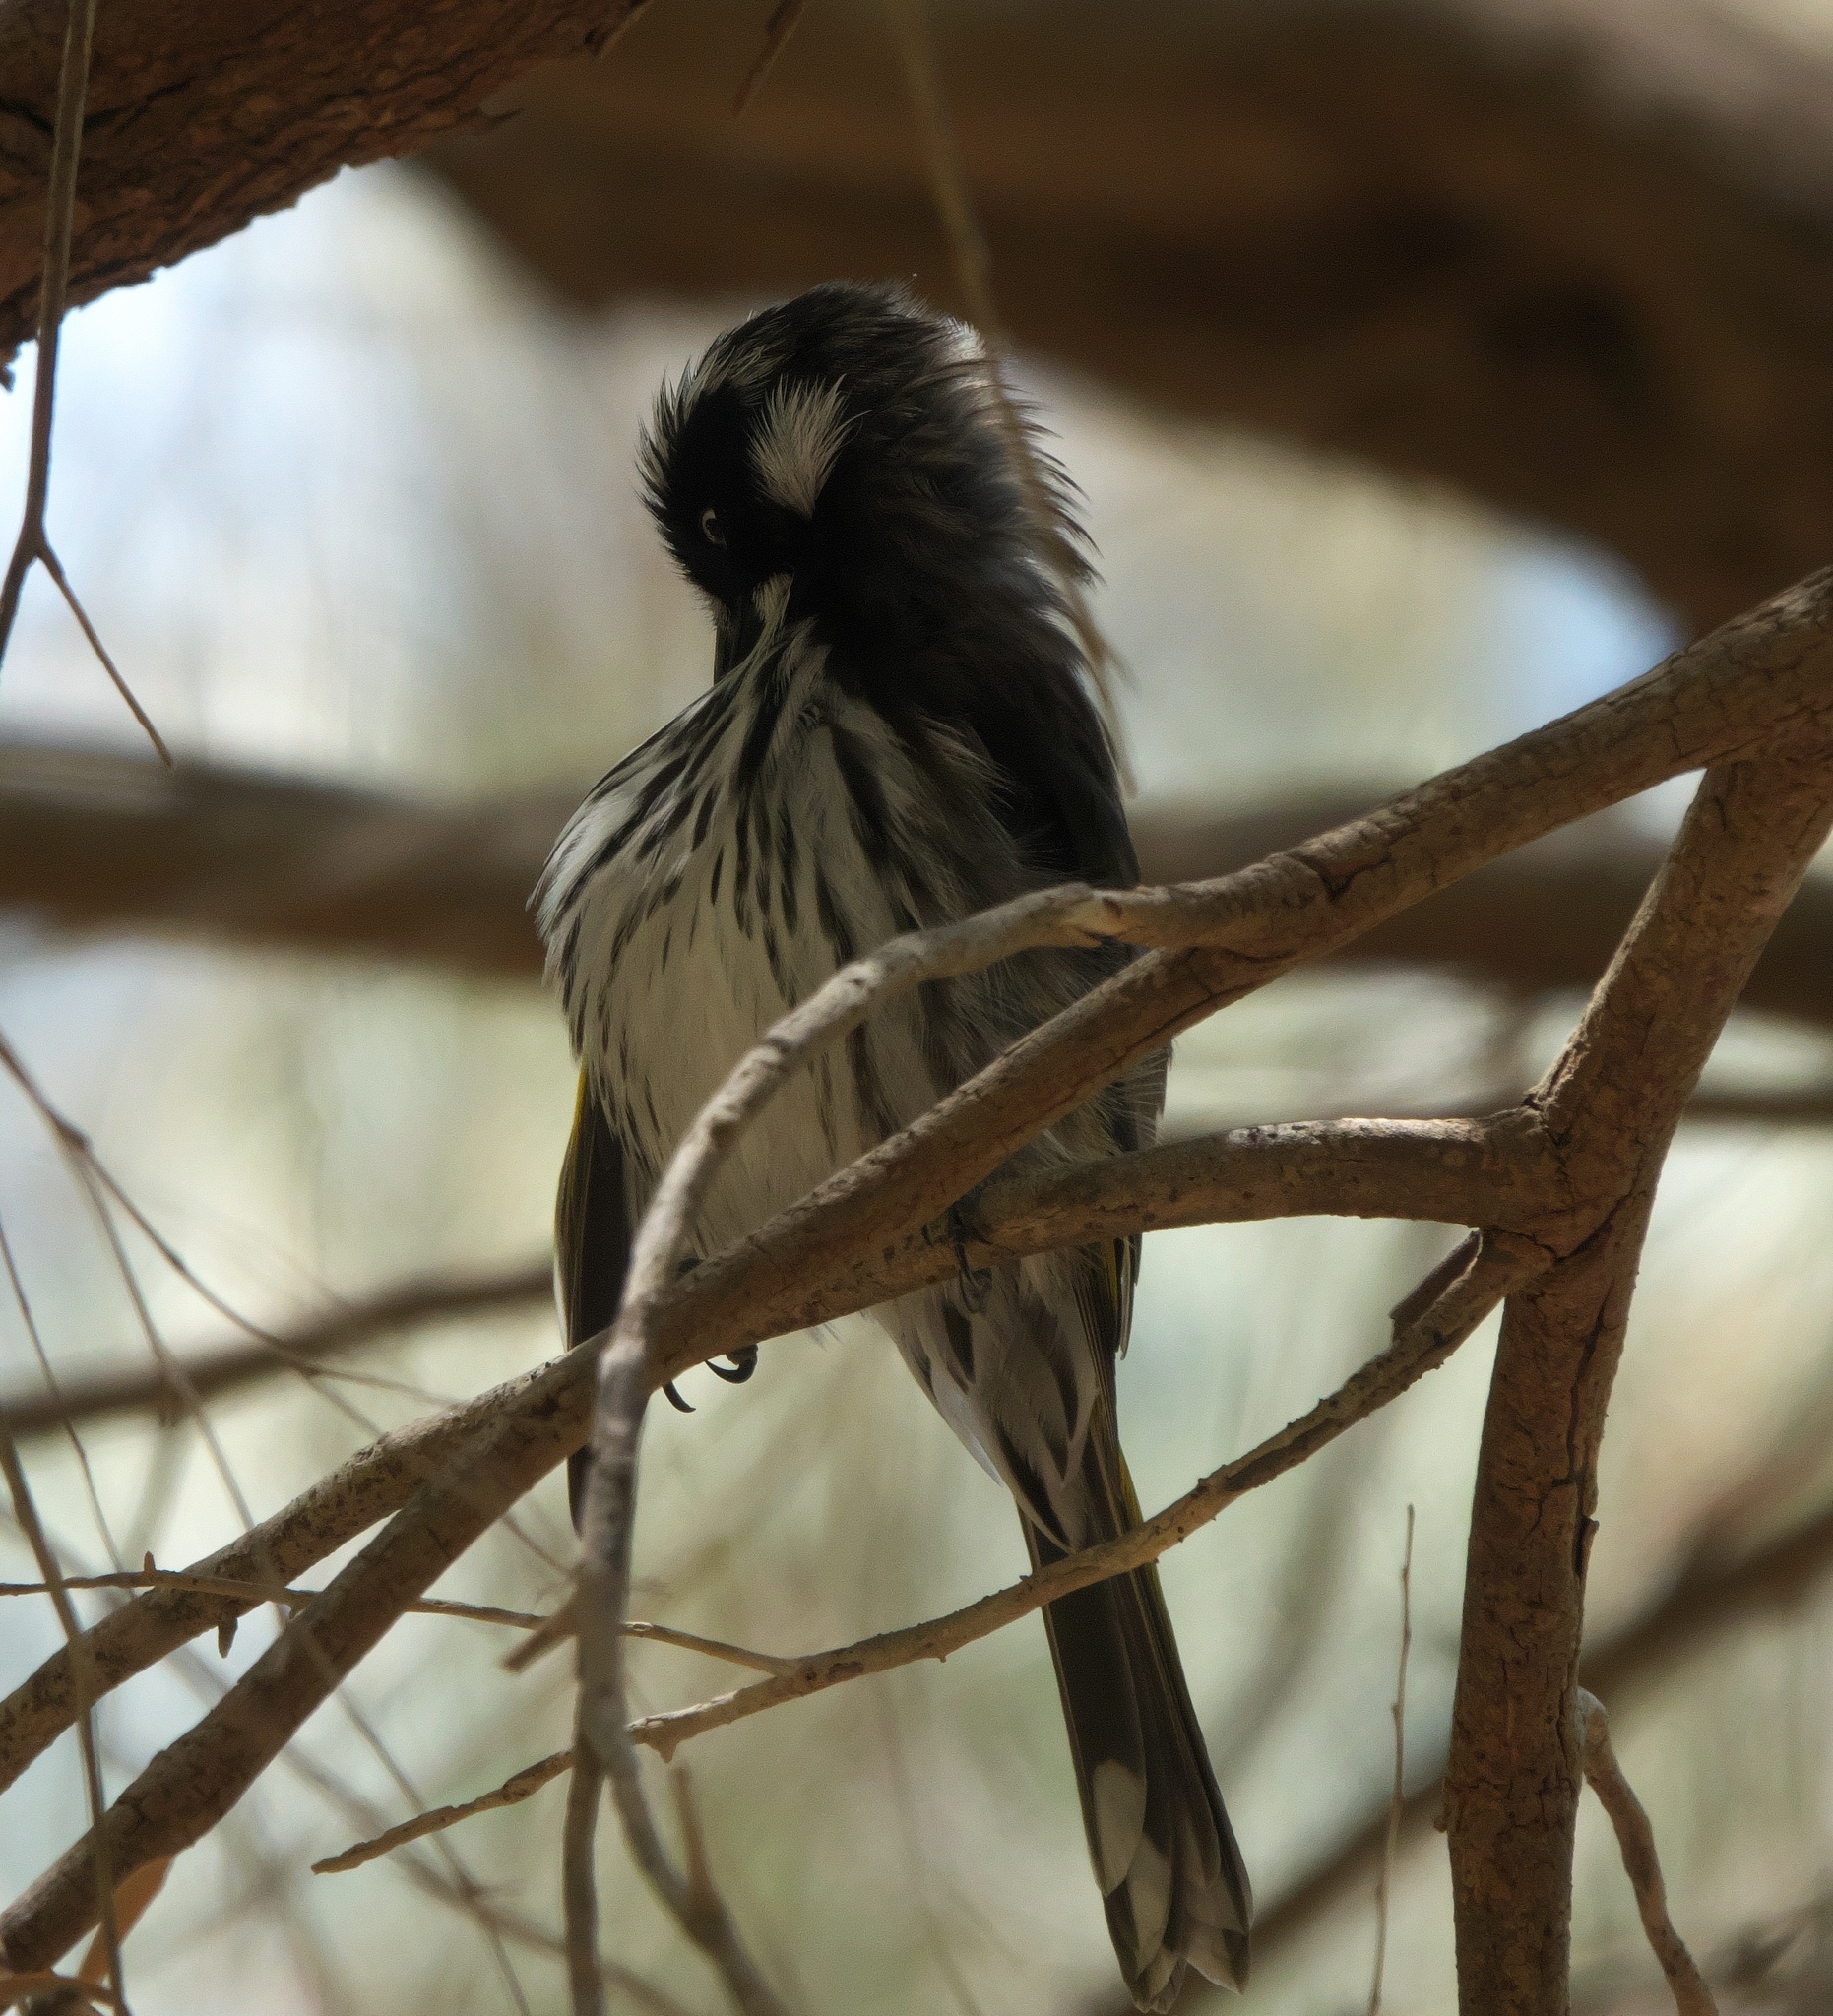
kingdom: Animalia
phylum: Chordata
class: Aves
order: Passeriformes
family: Meliphagidae
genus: Phylidonyris
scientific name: Phylidonyris novaehollandiae
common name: New holland honeyeater
